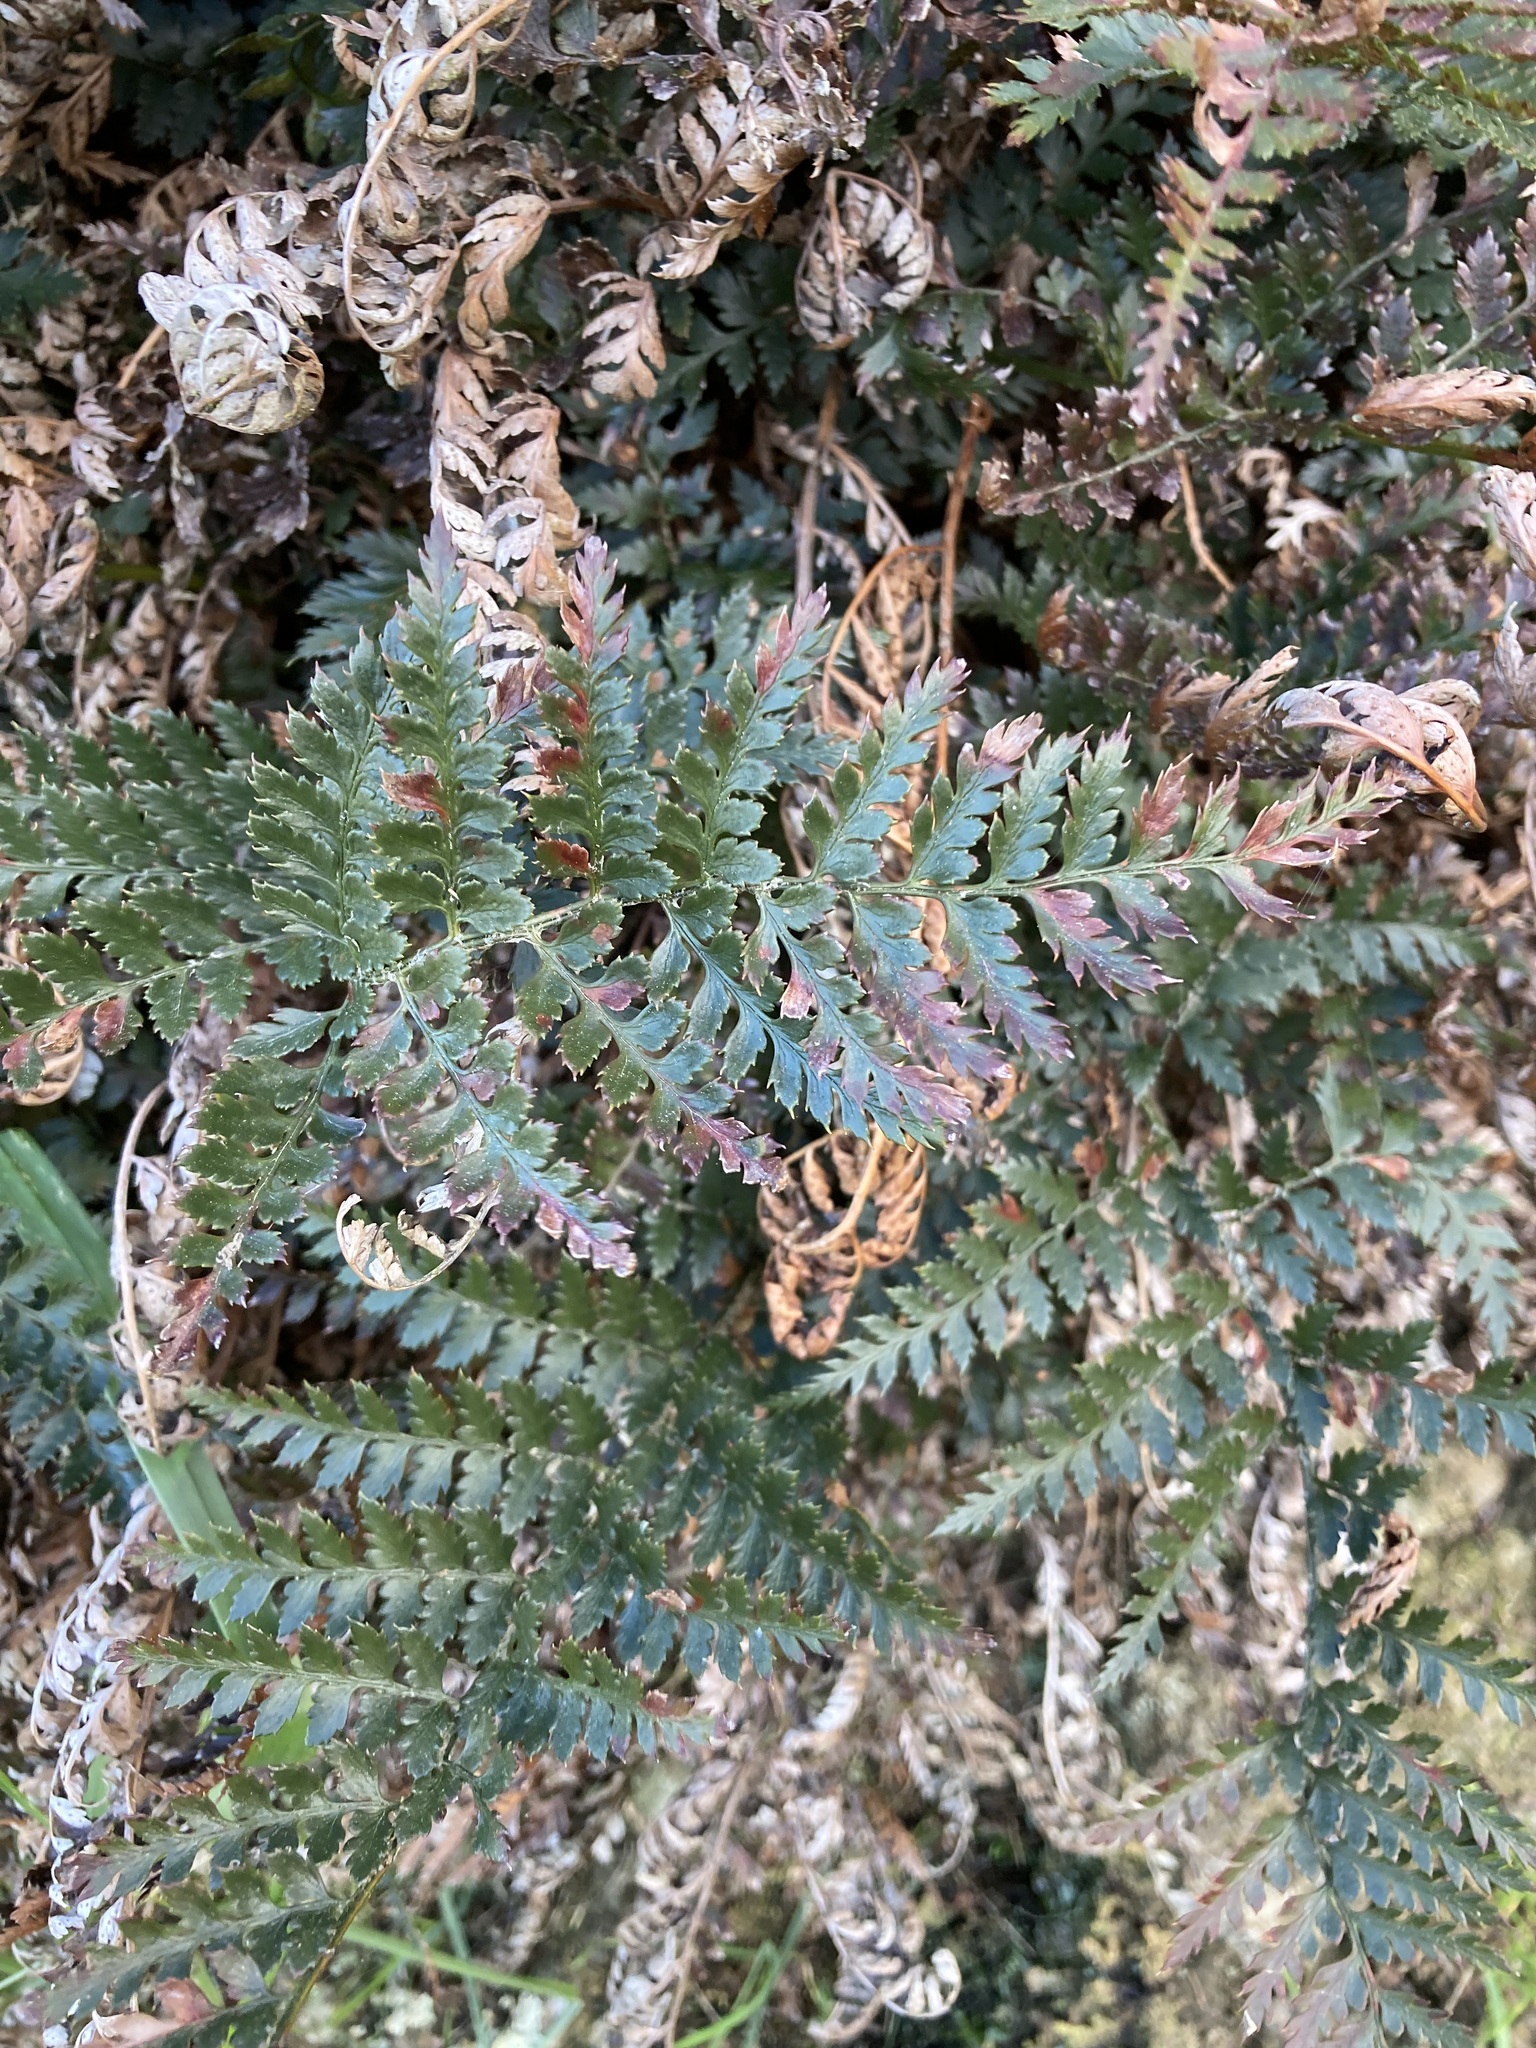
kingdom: Plantae
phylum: Tracheophyta
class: Polypodiopsida
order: Polypodiales
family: Dryopteridaceae
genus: Polystichum
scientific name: Polystichum oculatum
